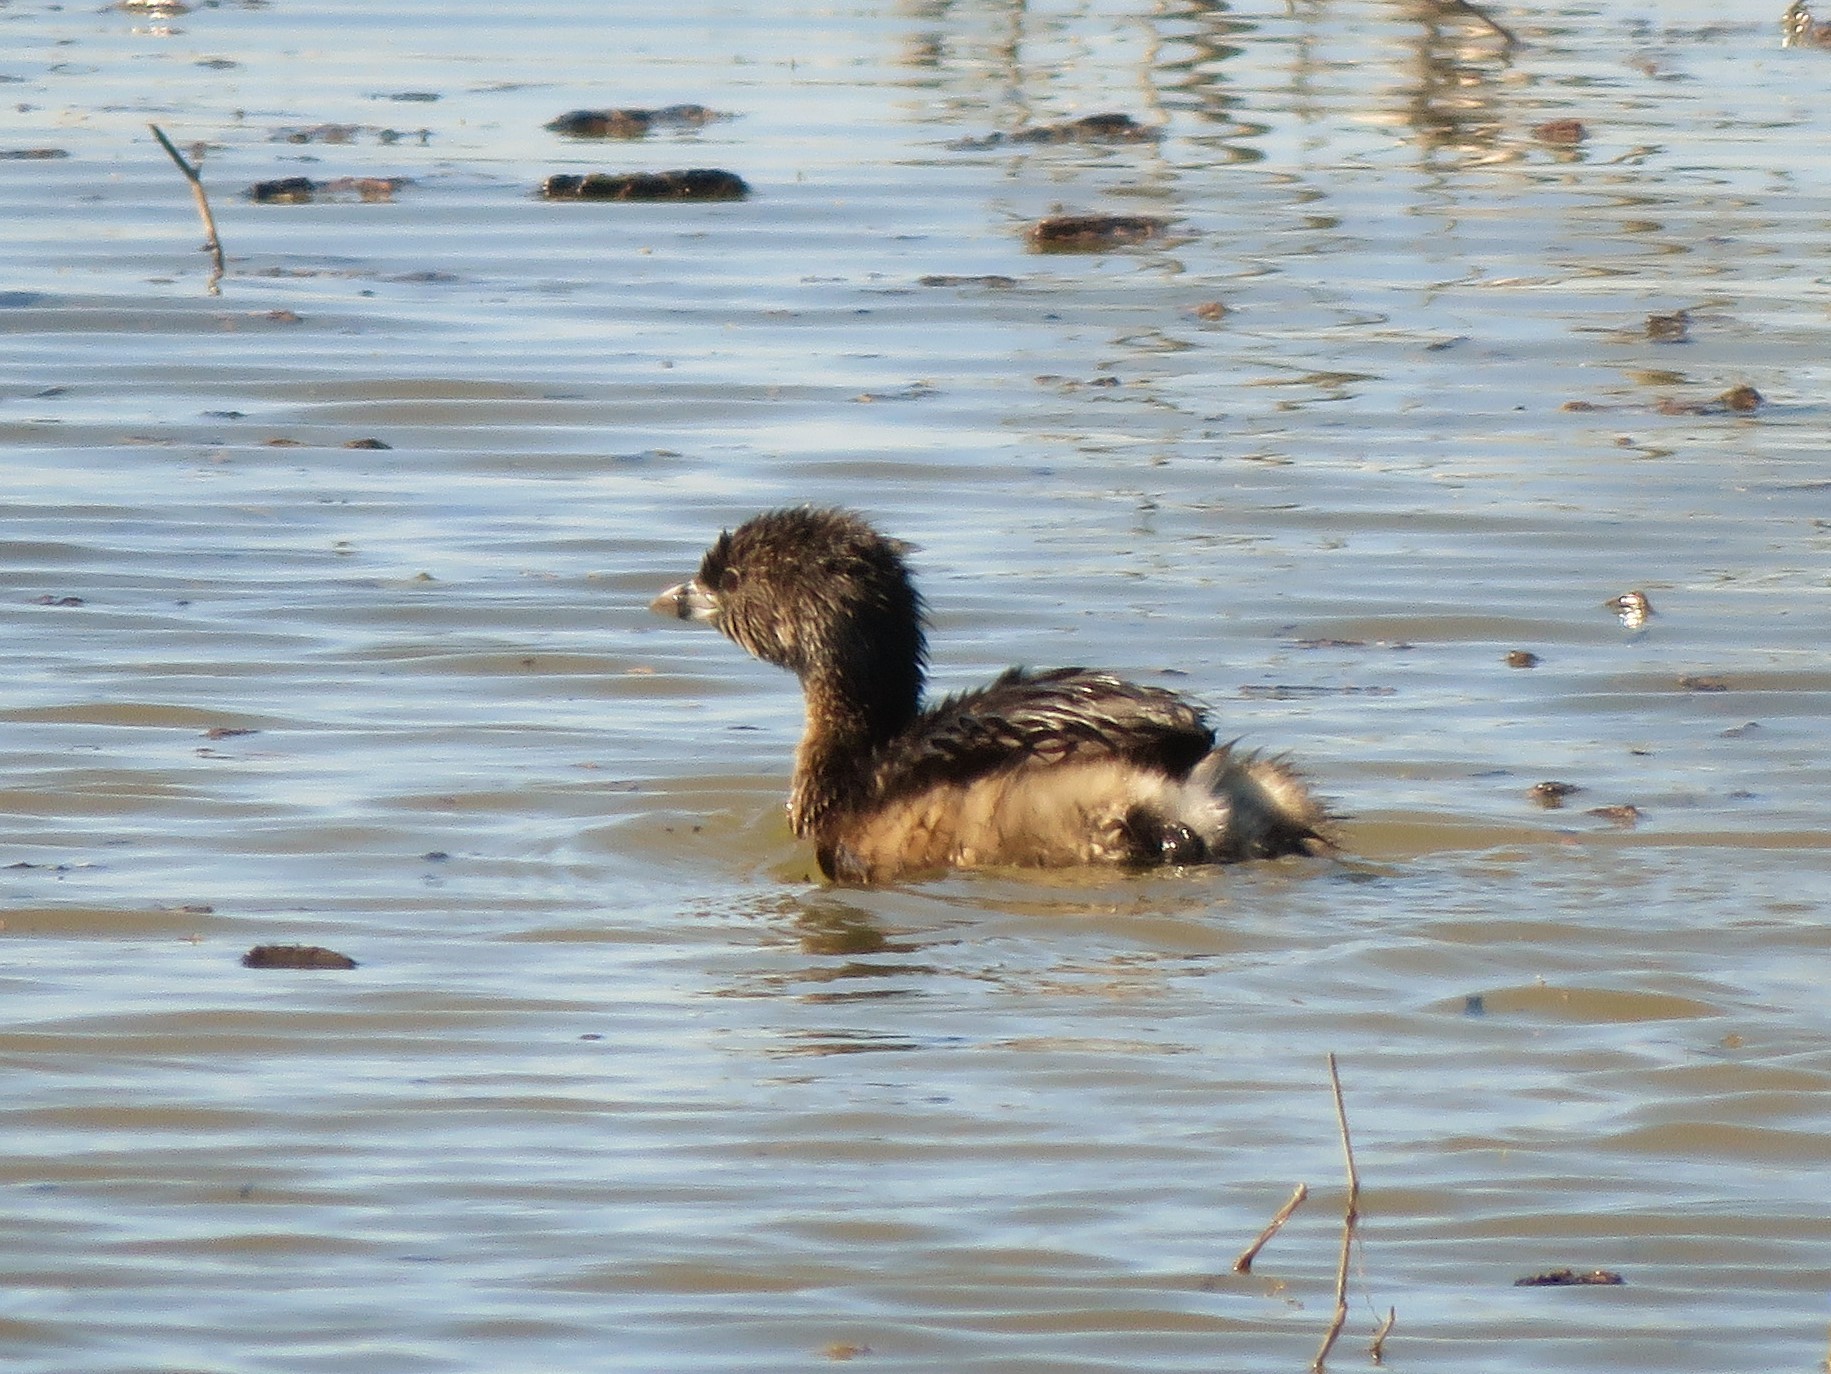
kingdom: Animalia
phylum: Chordata
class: Aves
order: Podicipediformes
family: Podicipedidae
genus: Podilymbus
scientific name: Podilymbus podiceps
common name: Pied-billed grebe
